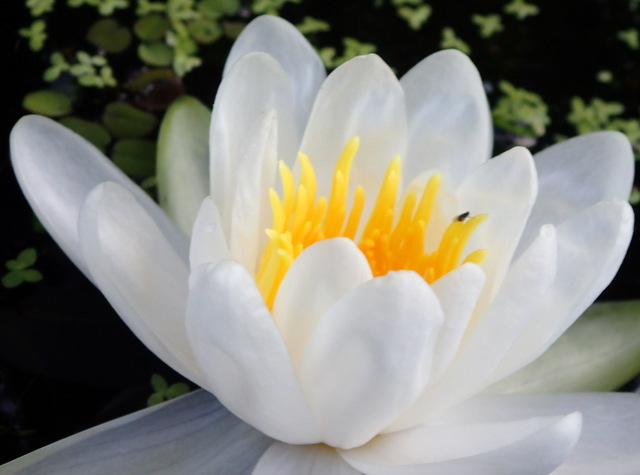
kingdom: Plantae
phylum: Tracheophyta
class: Magnoliopsida
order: Nymphaeales
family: Nymphaeaceae
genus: Nymphaea
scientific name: Nymphaea odorata
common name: Fragrant water-lily
